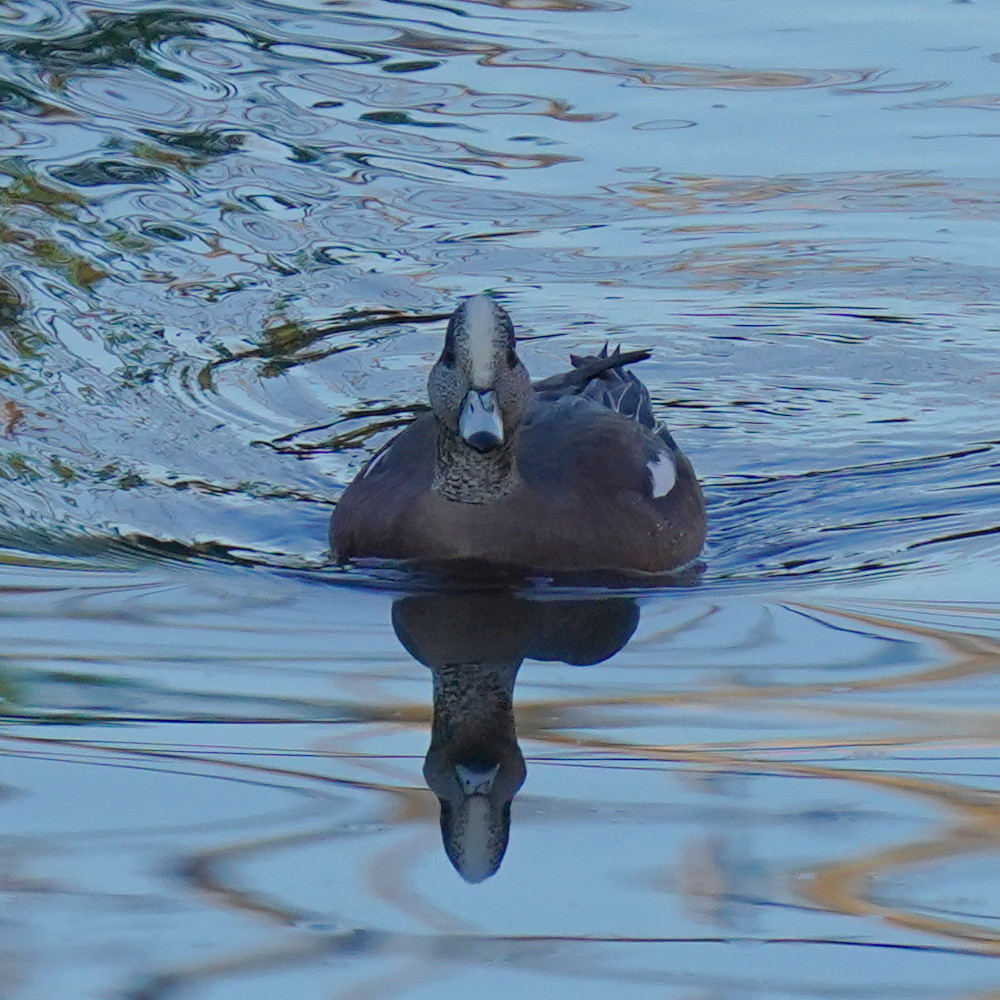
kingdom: Animalia
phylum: Chordata
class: Aves
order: Anseriformes
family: Anatidae
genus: Mareca
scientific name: Mareca americana
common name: American wigeon
